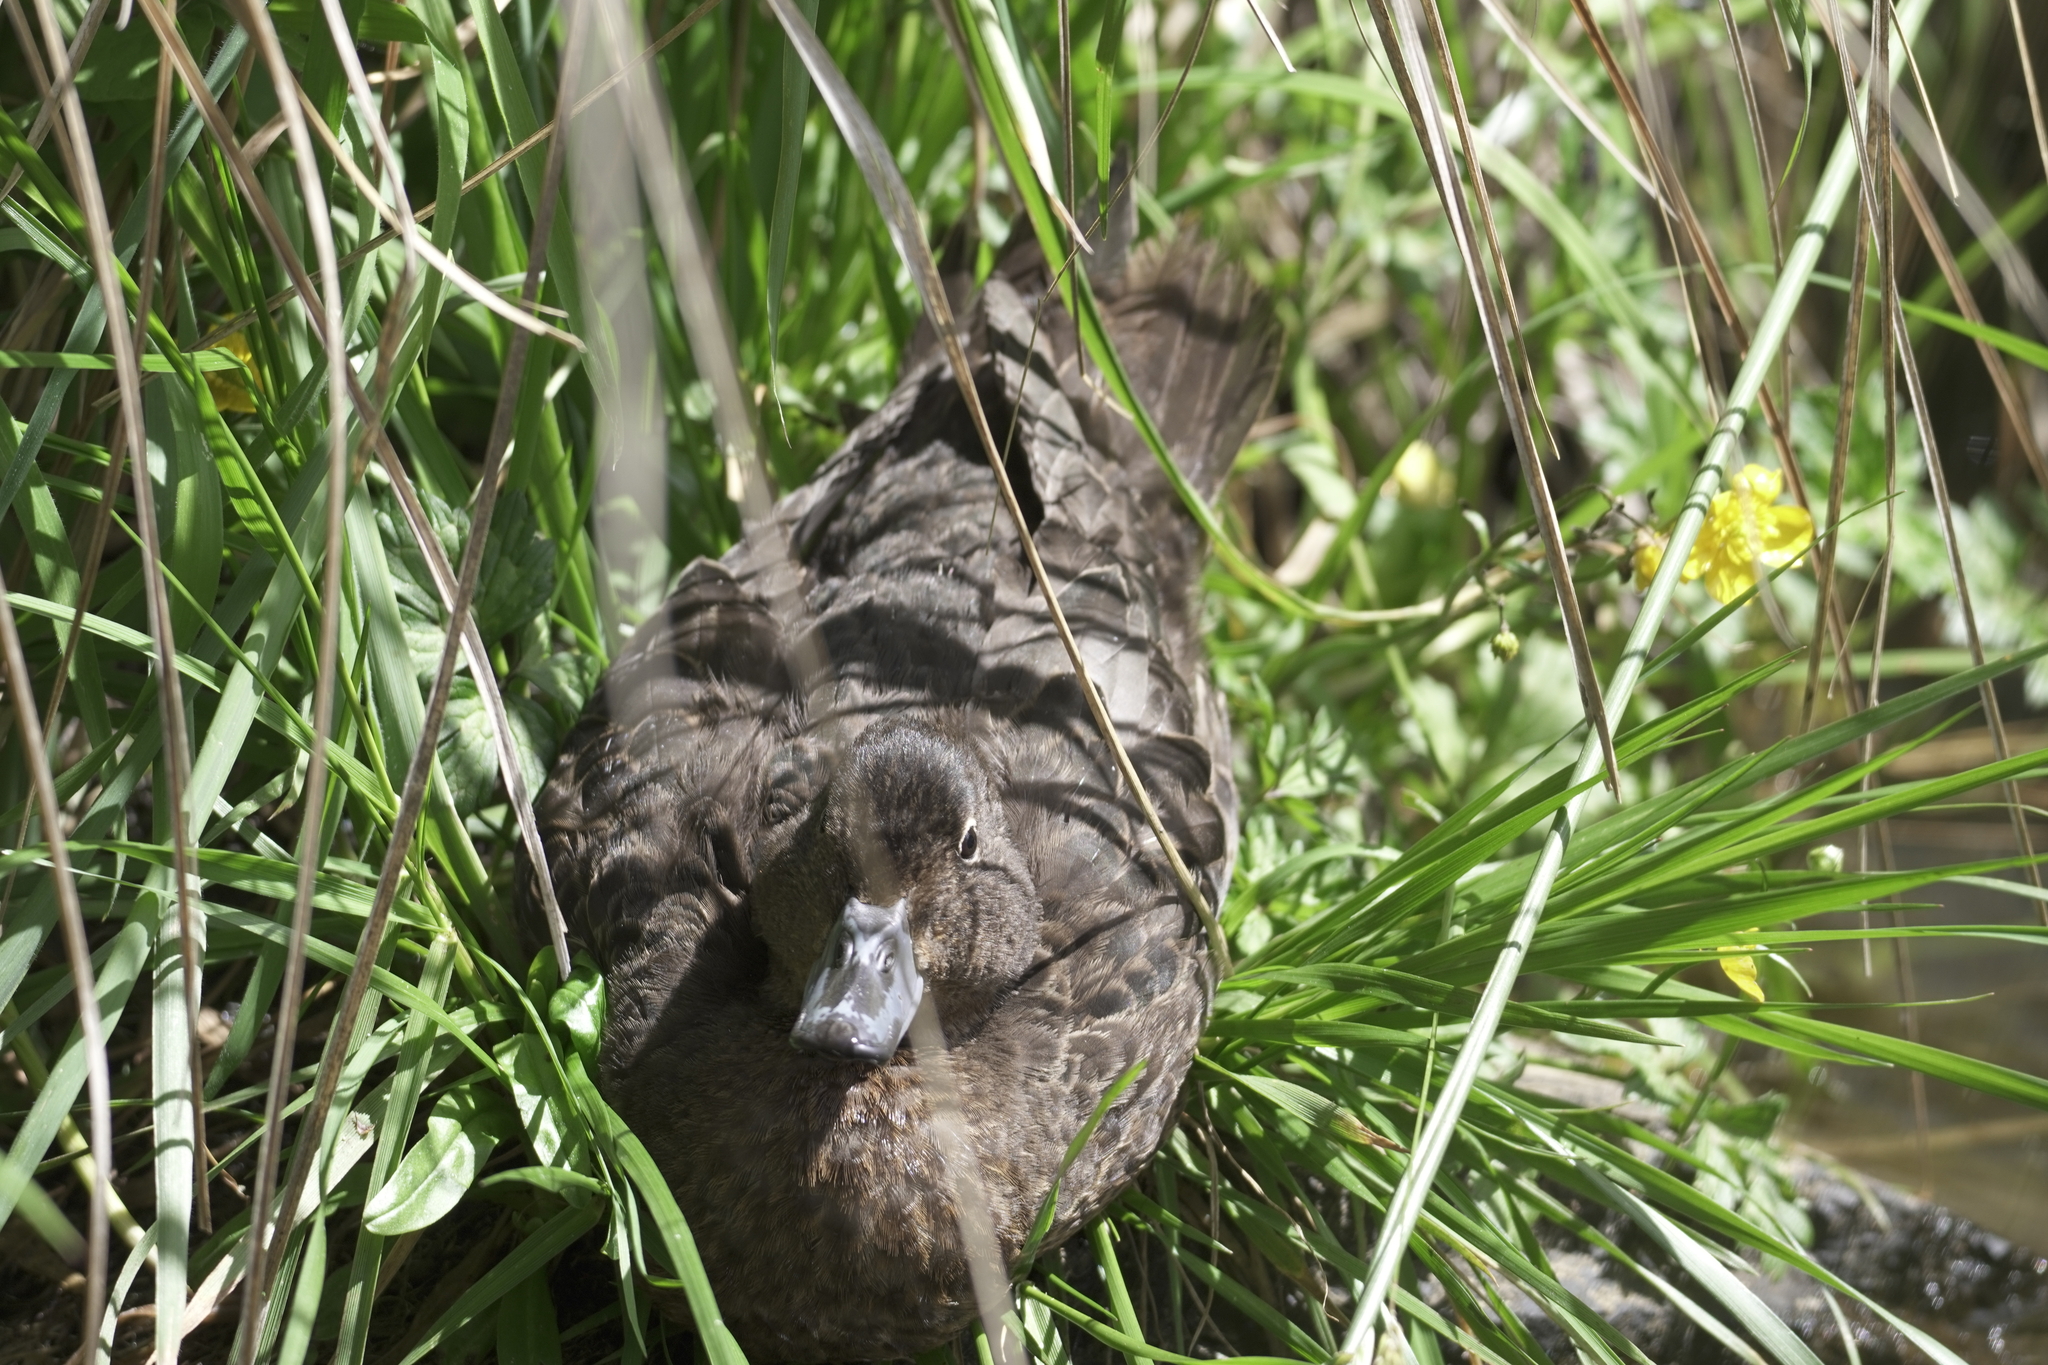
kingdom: Animalia
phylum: Chordata
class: Aves
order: Anseriformes
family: Anatidae
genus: Anas
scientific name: Anas chlorotis
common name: Brown teal
